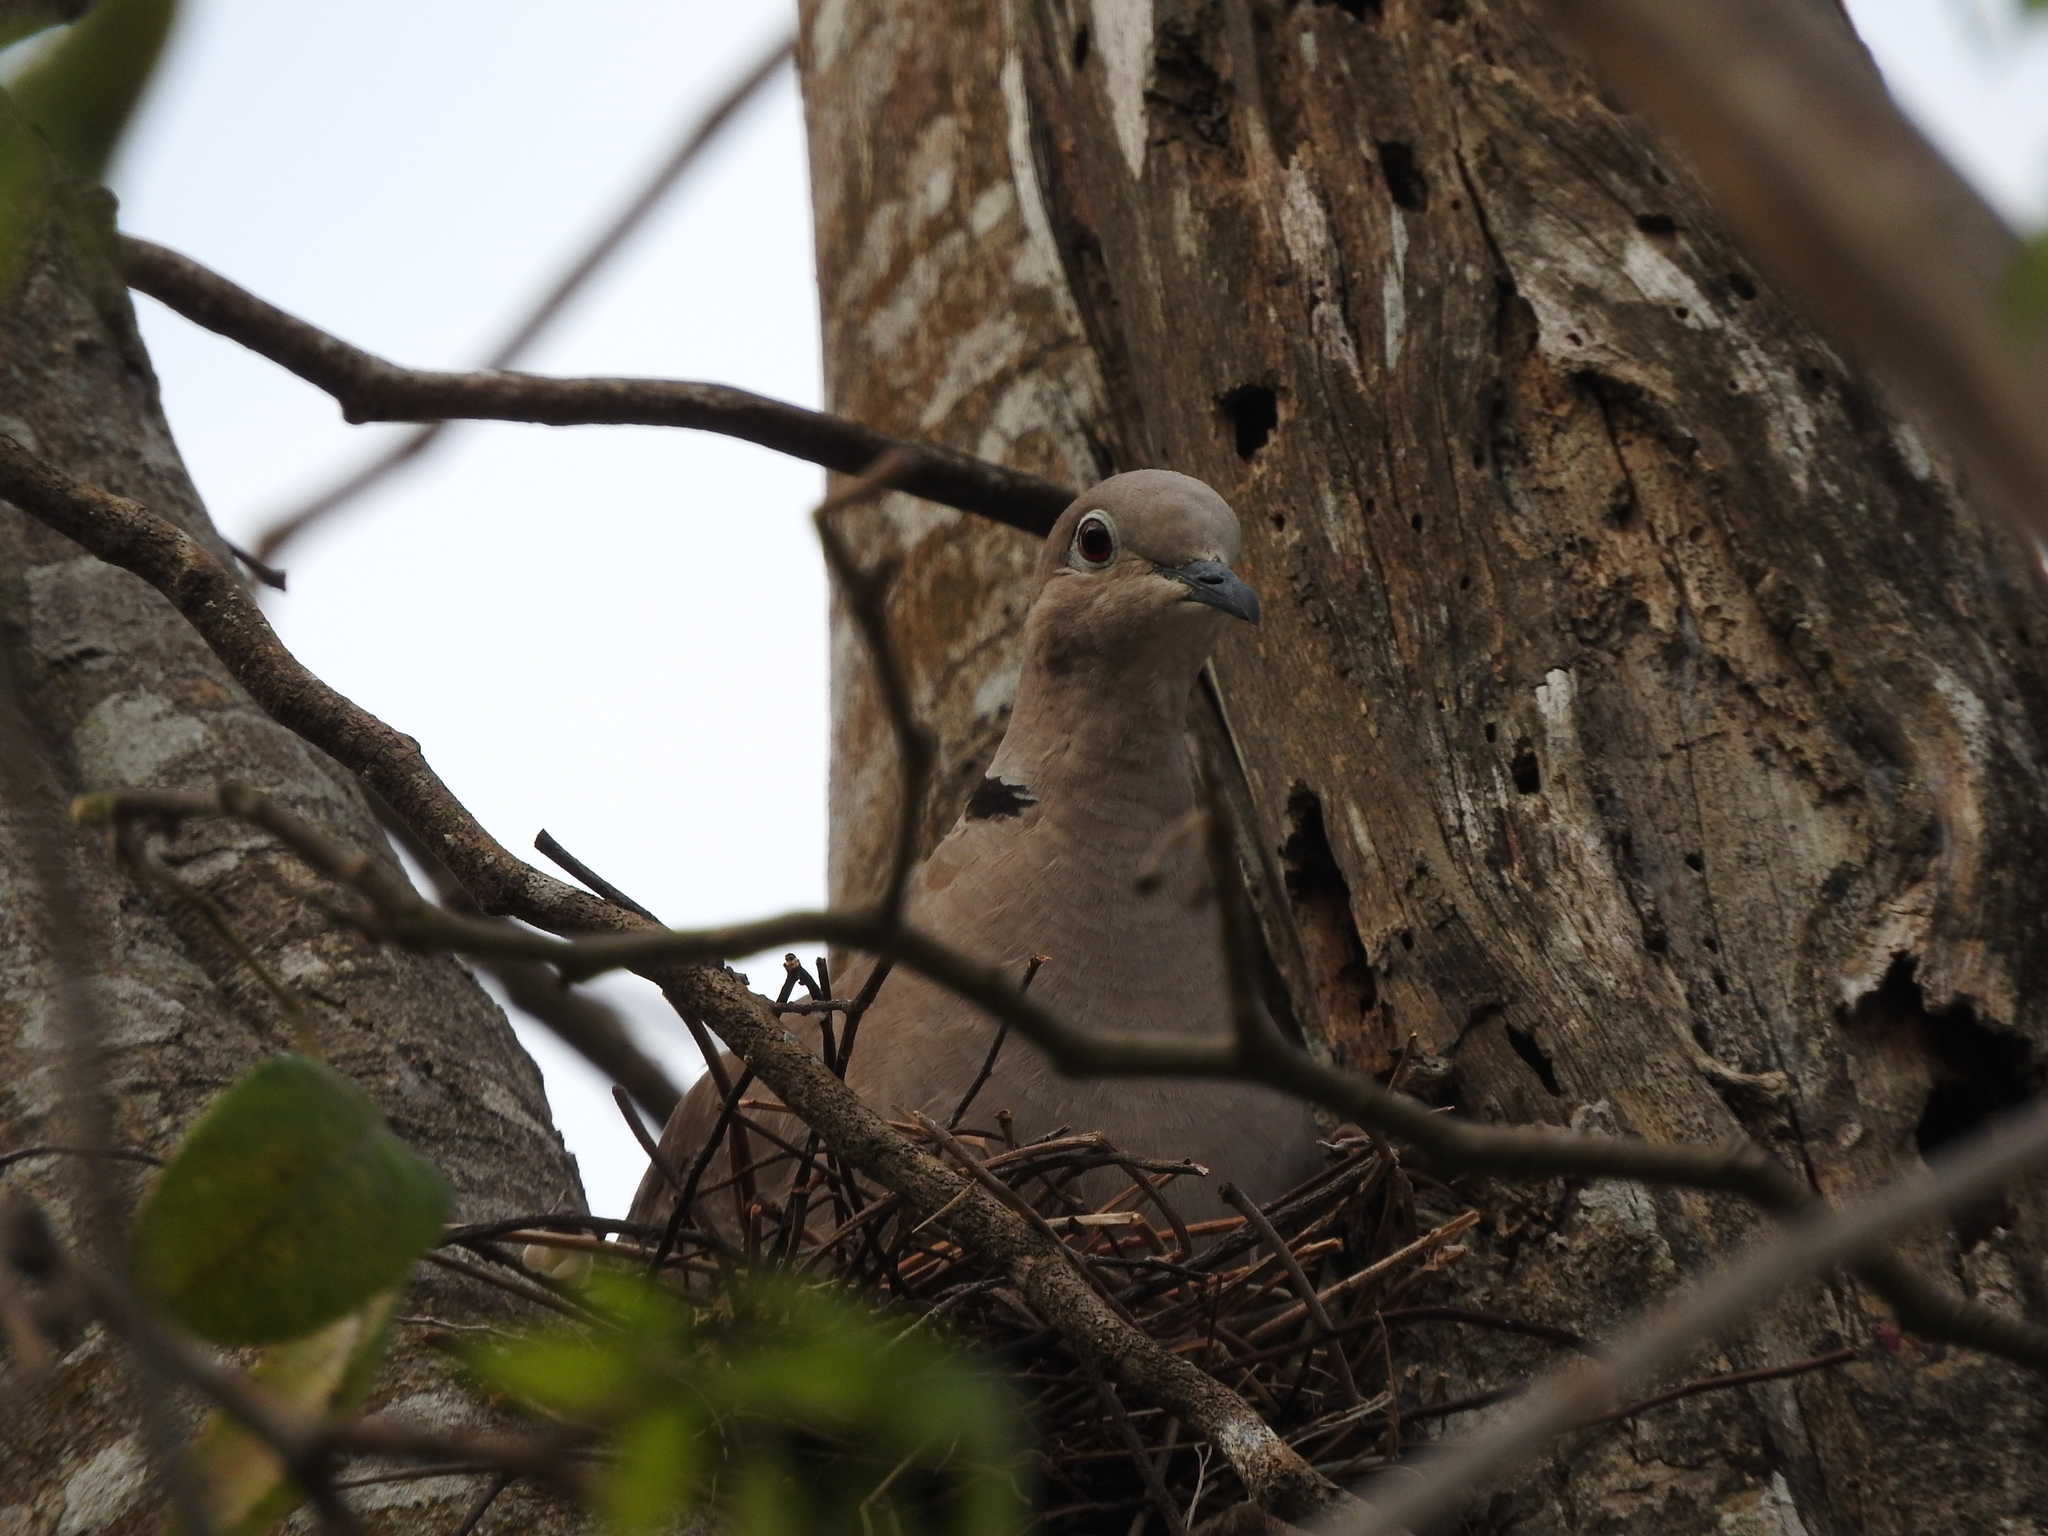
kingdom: Animalia
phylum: Chordata
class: Aves
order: Columbiformes
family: Columbidae
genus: Streptopelia
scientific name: Streptopelia decaocto
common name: Eurasian collared dove
